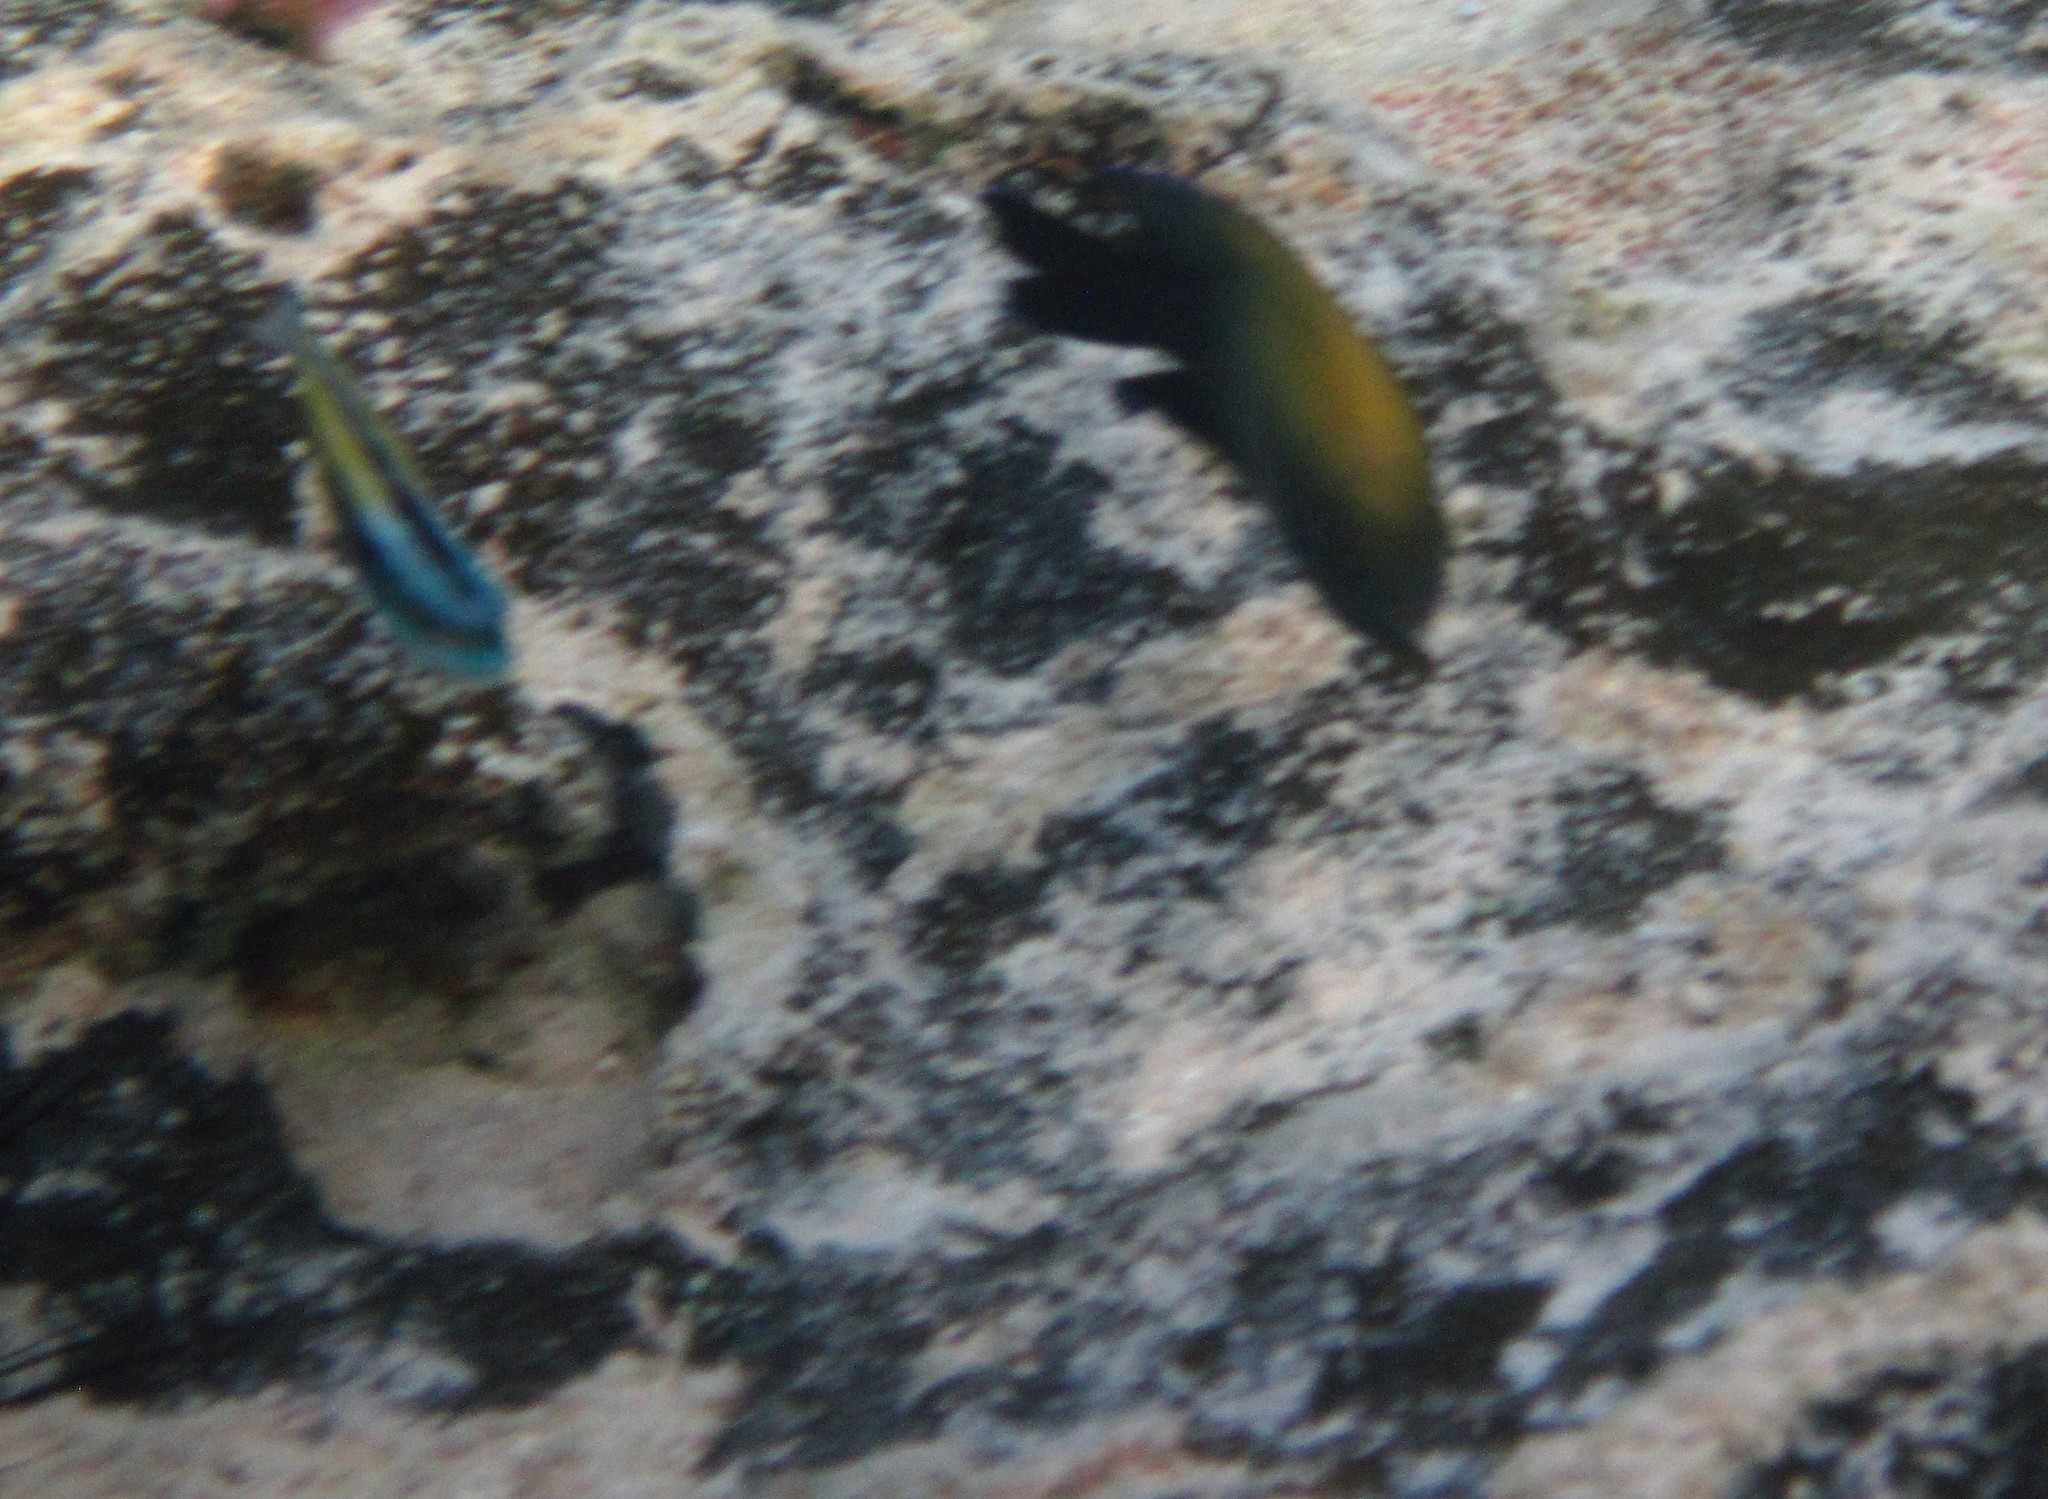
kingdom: Animalia
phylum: Chordata
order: Perciformes
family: Labridae
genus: Thalassoma
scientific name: Thalassoma bifasciatum
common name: Bluehead wrasse
